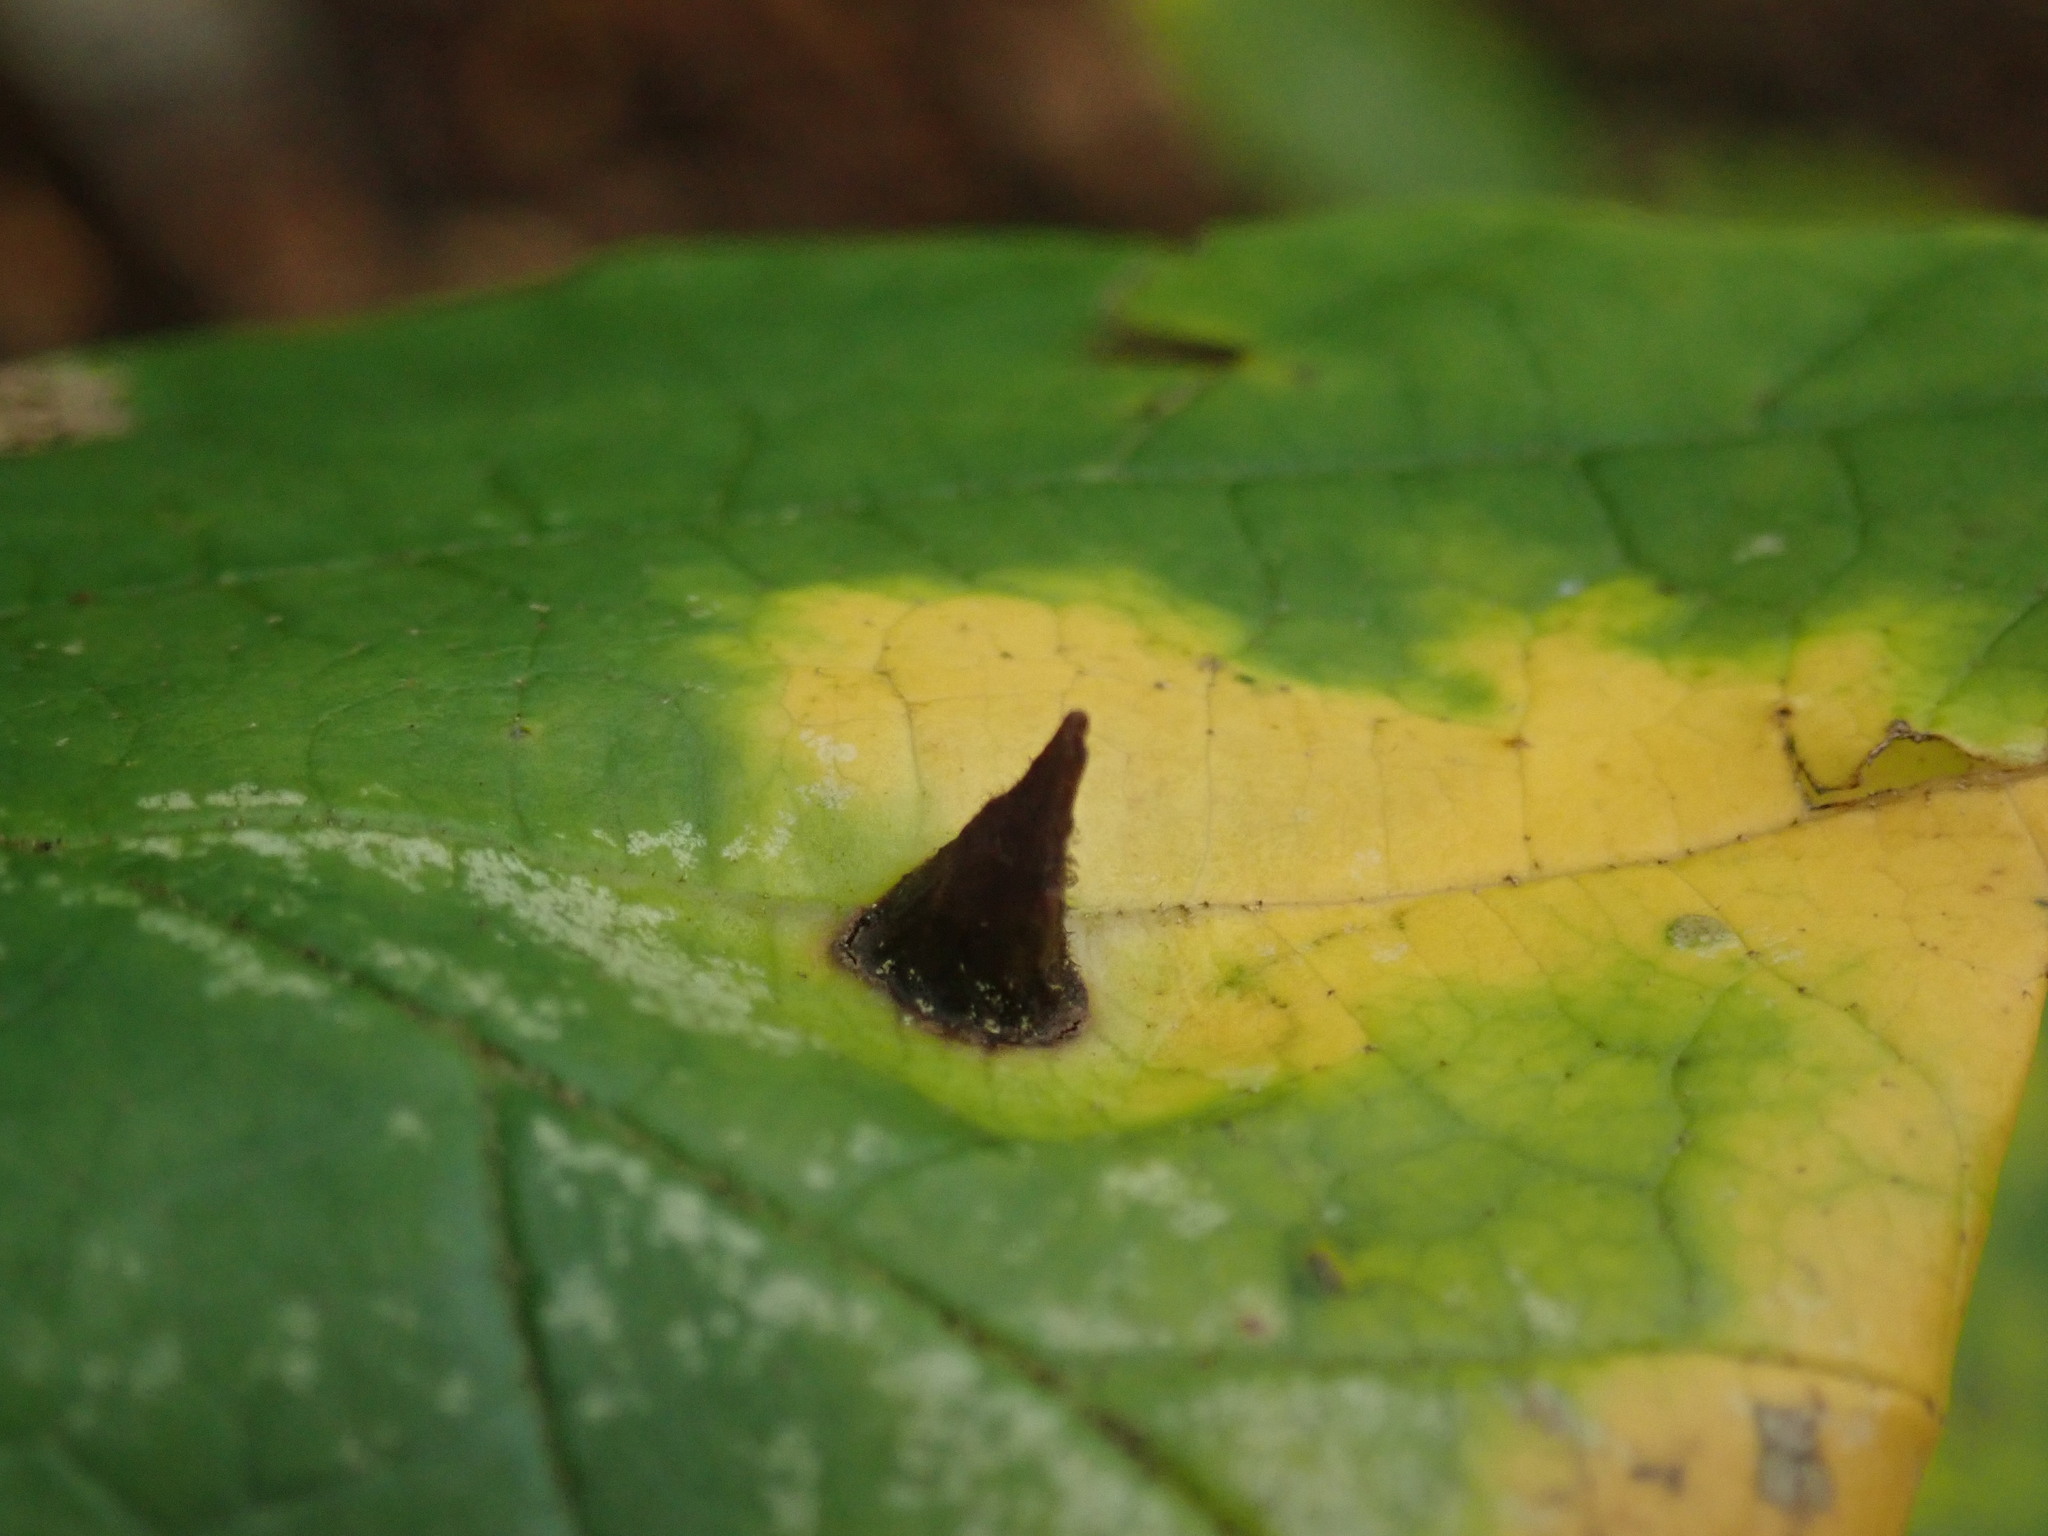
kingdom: Animalia
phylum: Arthropoda
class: Insecta
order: Hemiptera
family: Aphididae
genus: Hormaphis
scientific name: Hormaphis hamamelidis
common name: Witch-hazel cone gall aphid
